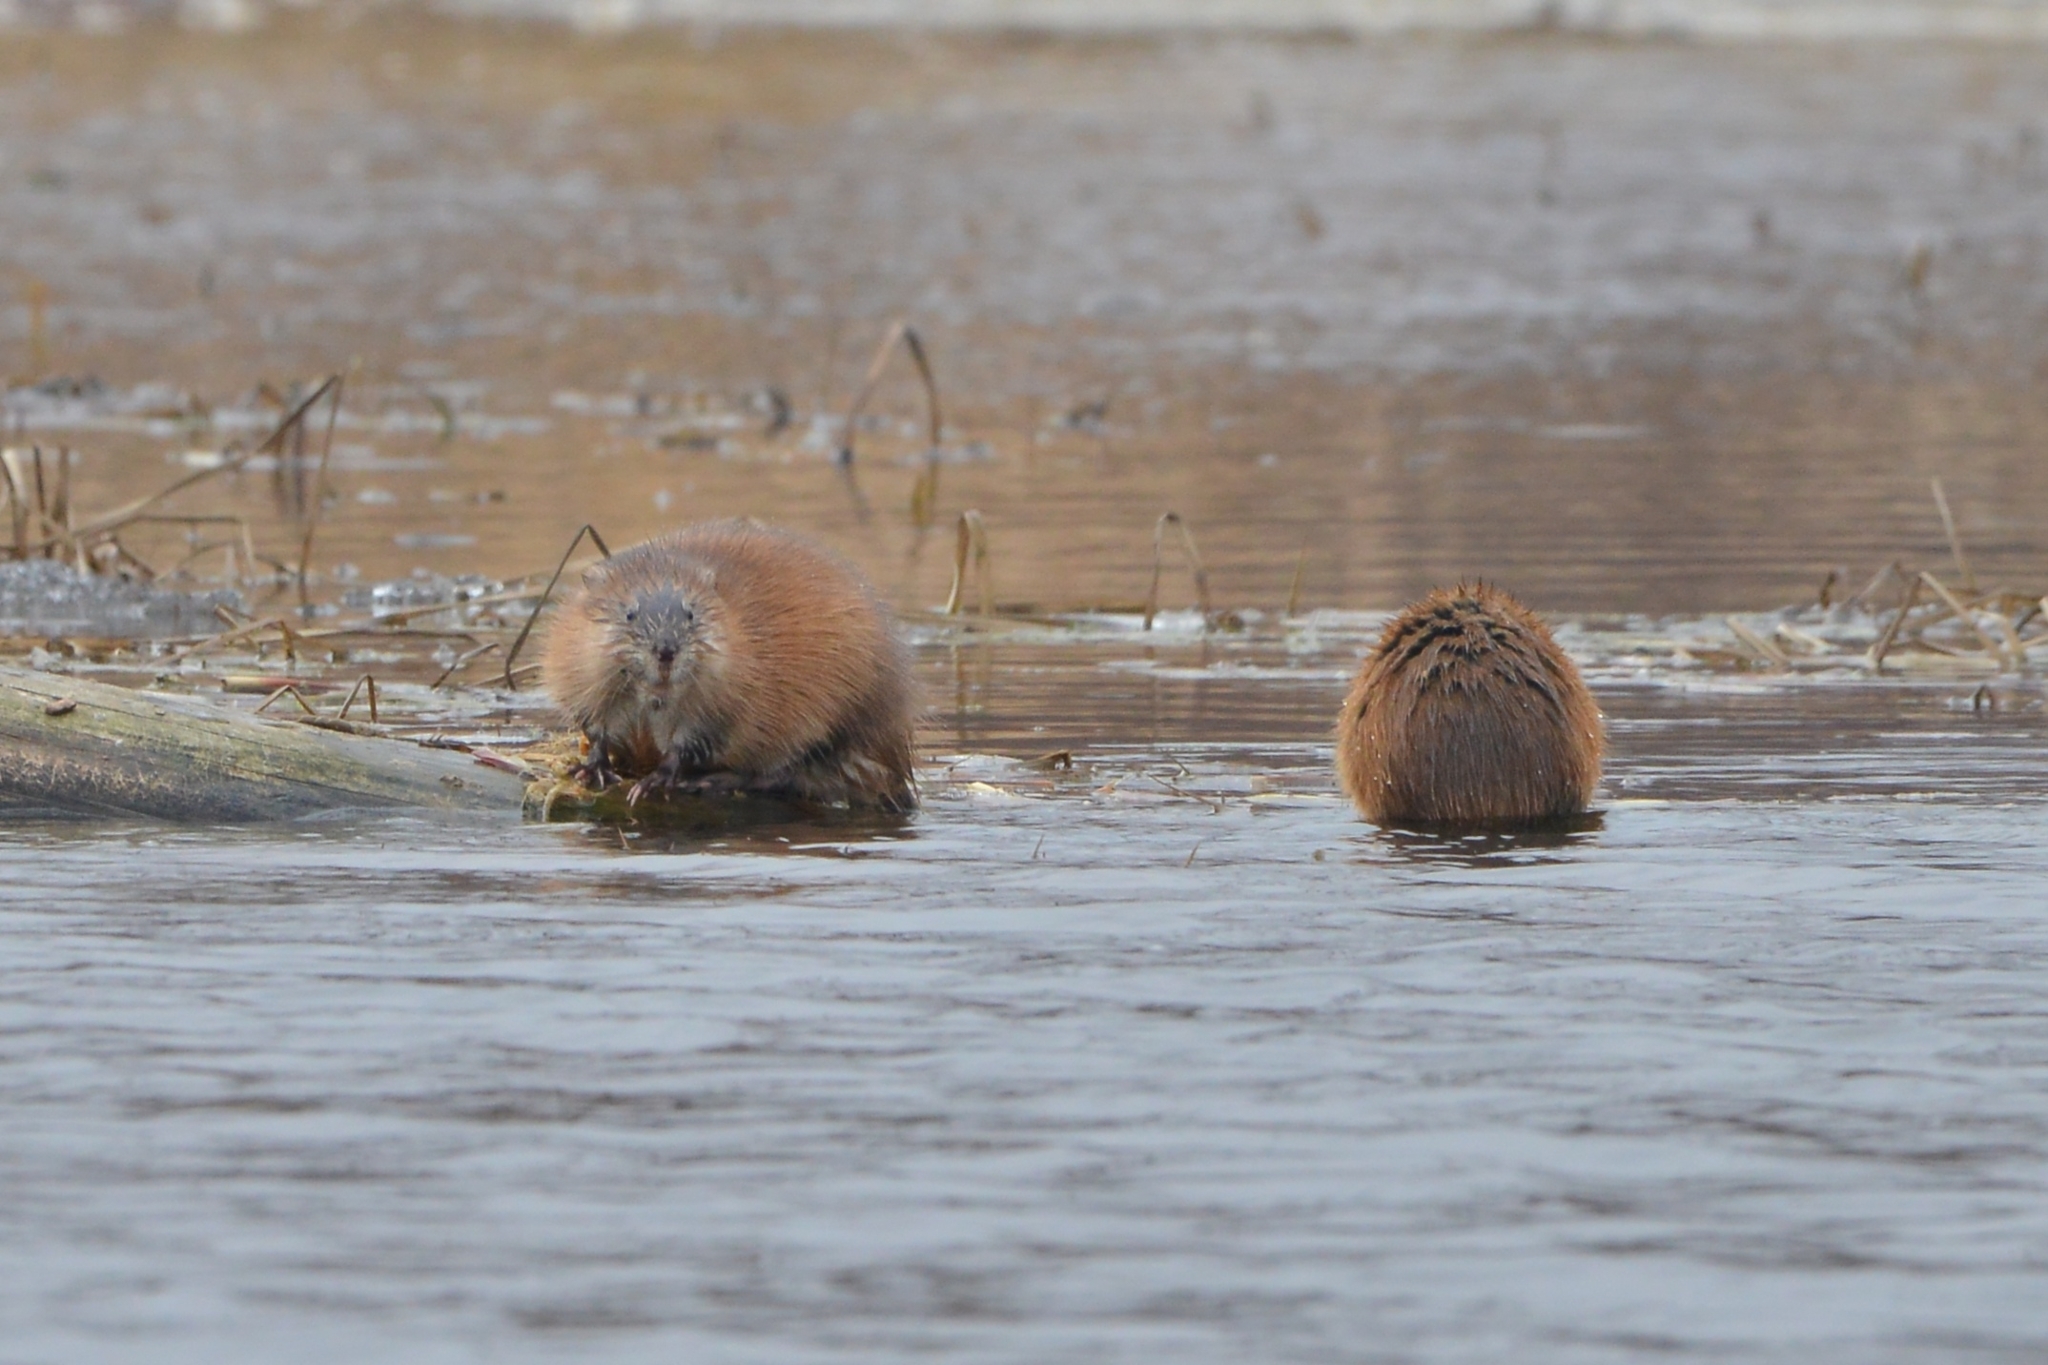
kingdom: Animalia
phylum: Chordata
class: Mammalia
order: Rodentia
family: Cricetidae
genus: Ondatra
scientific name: Ondatra zibethicus
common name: Muskrat
